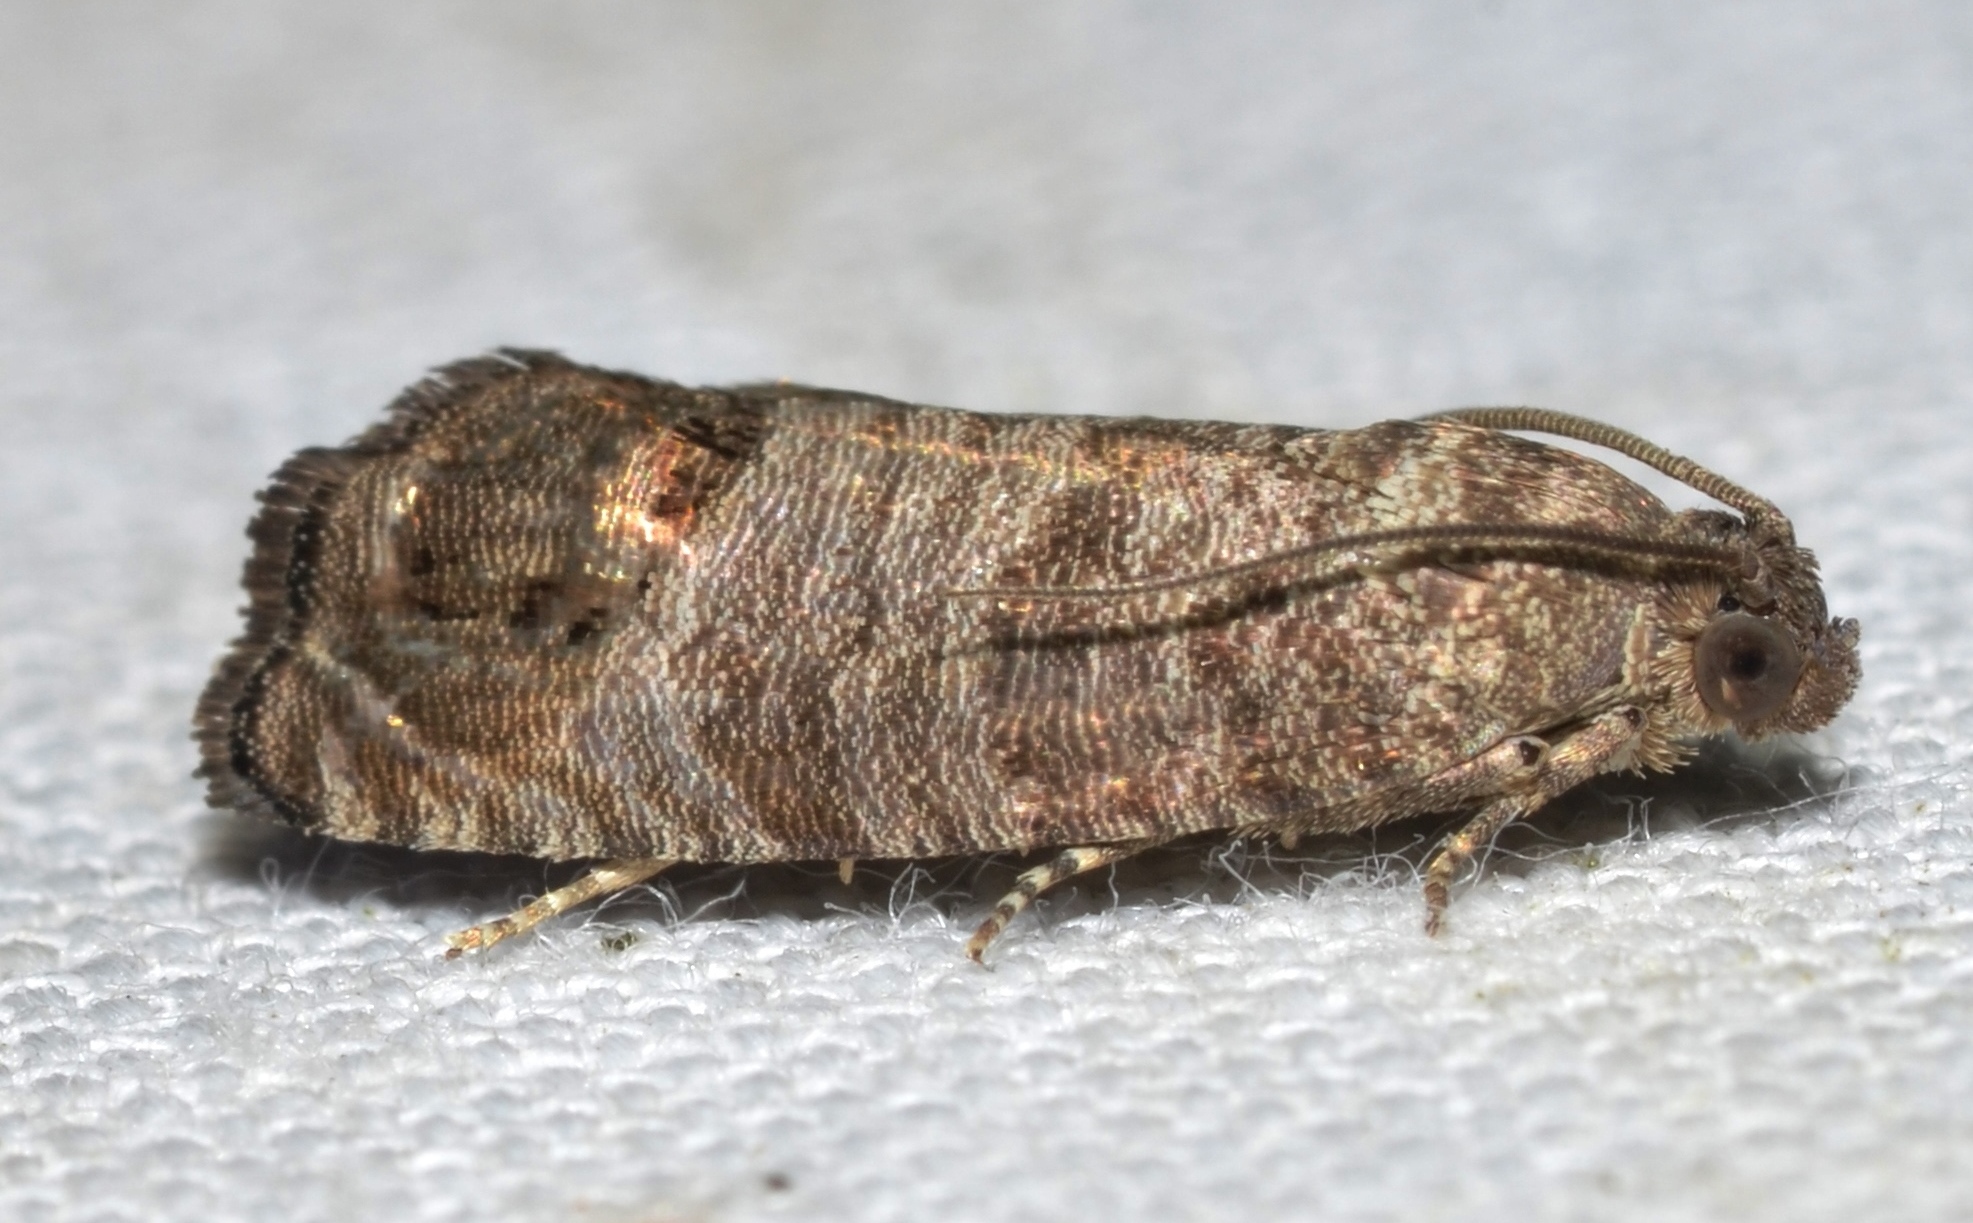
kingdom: Animalia
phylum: Arthropoda
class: Insecta
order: Lepidoptera
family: Tortricidae
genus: Cydia
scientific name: Cydia pomonella
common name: Codling moth
